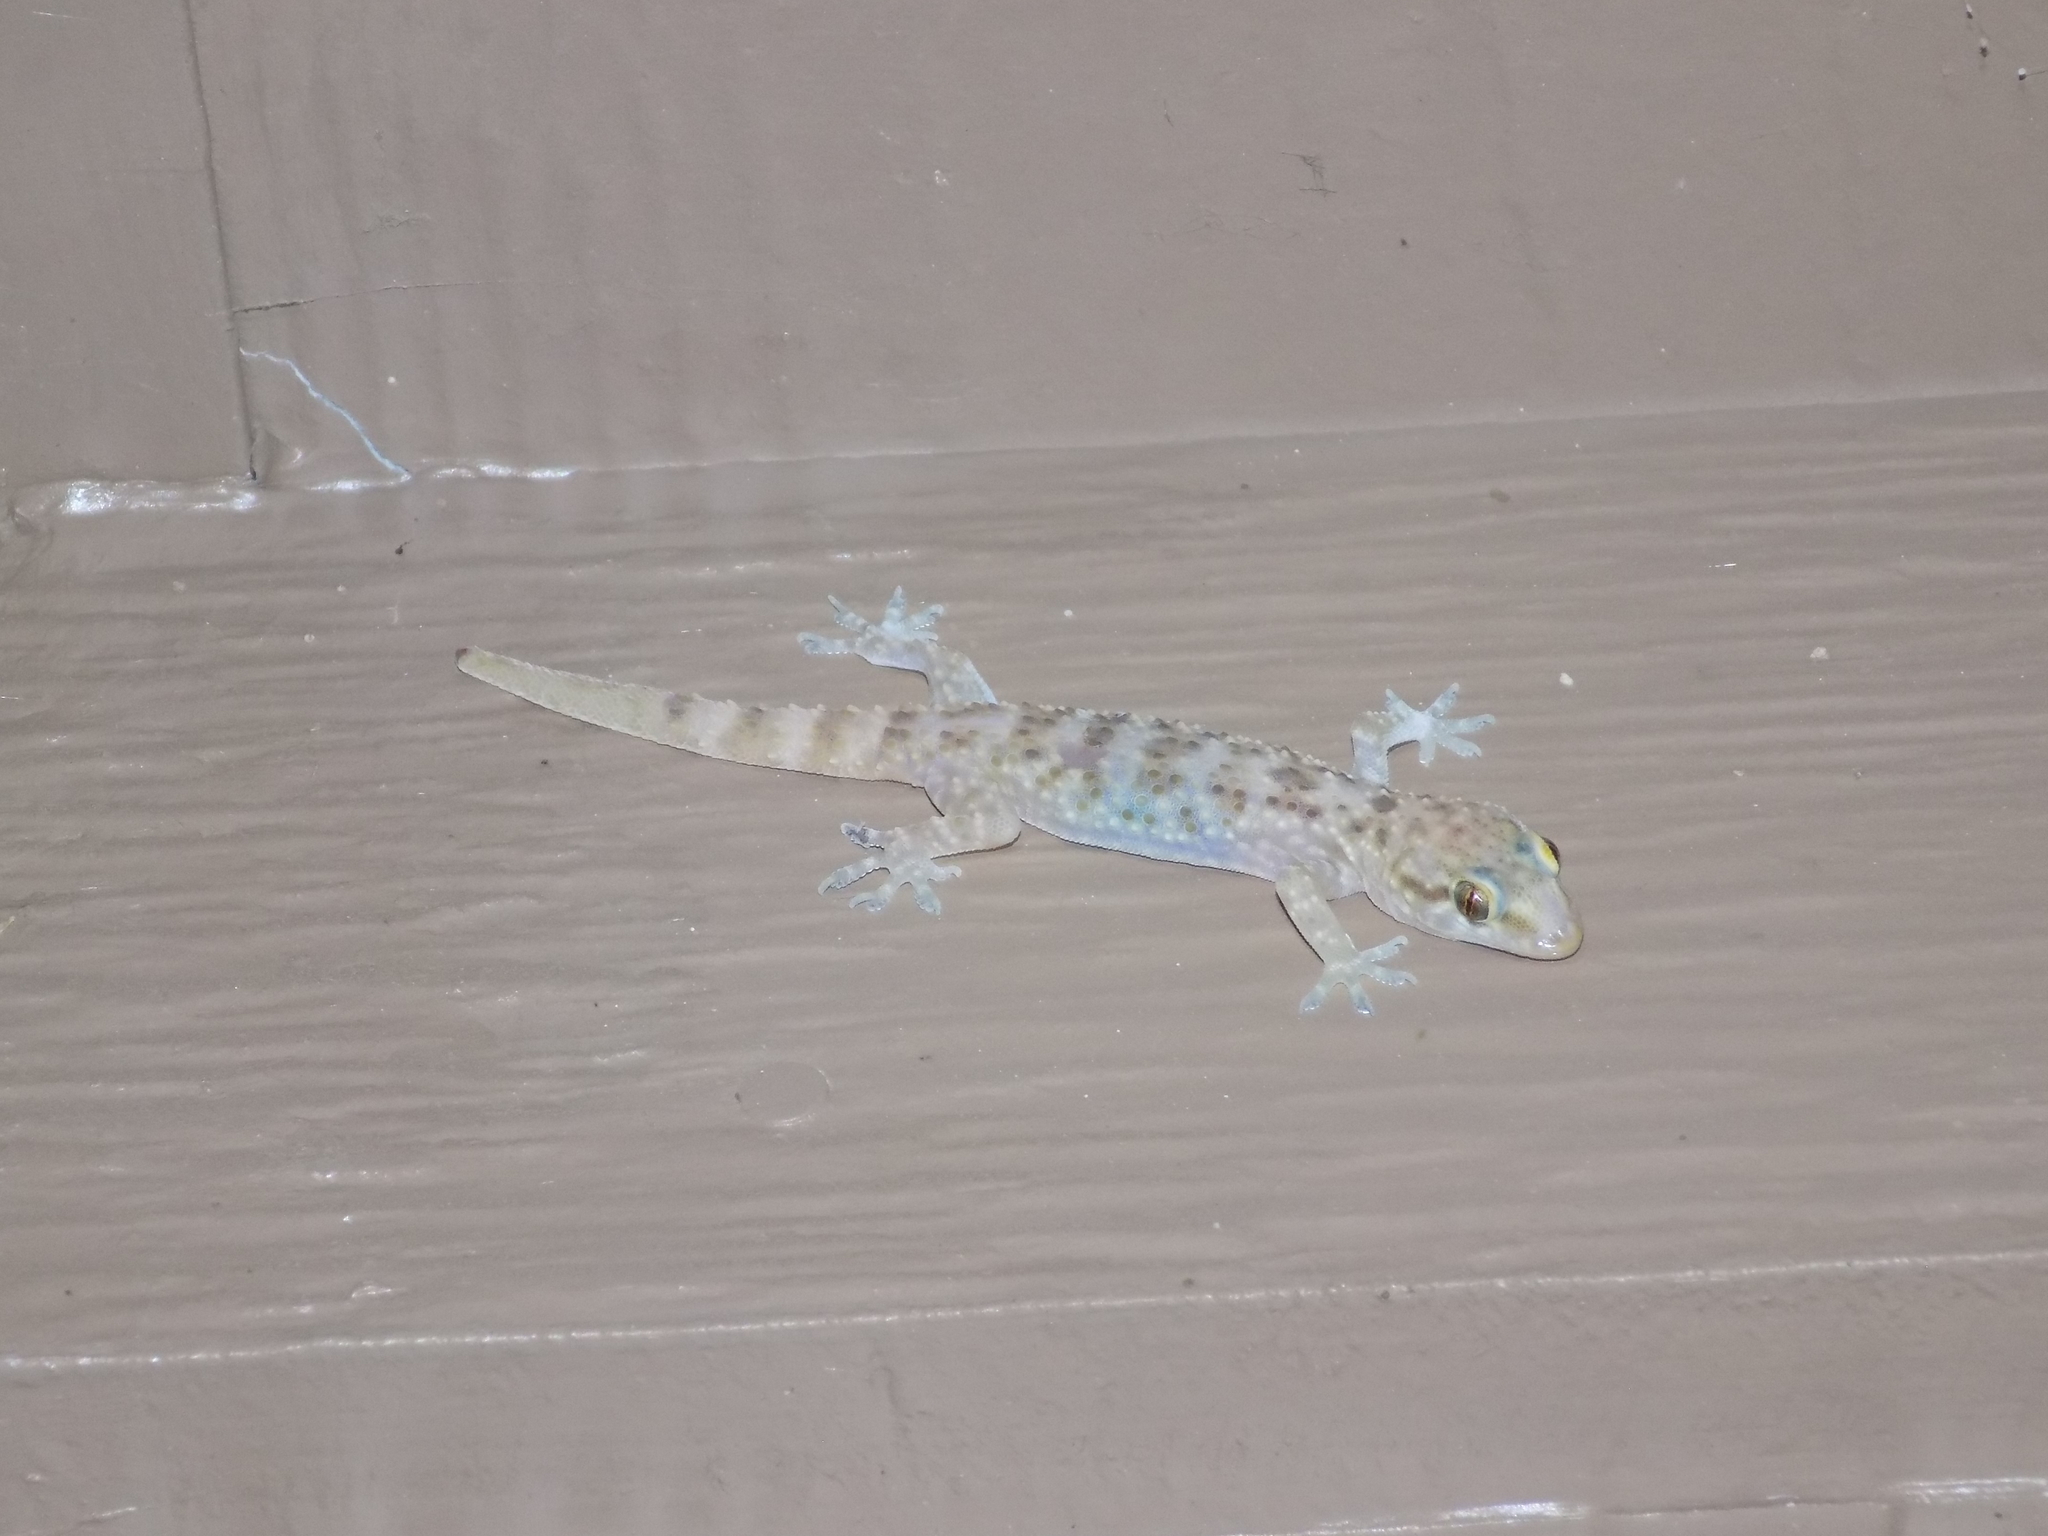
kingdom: Animalia
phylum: Chordata
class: Squamata
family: Gekkonidae
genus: Hemidactylus
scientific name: Hemidactylus turcicus
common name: Turkish gecko
